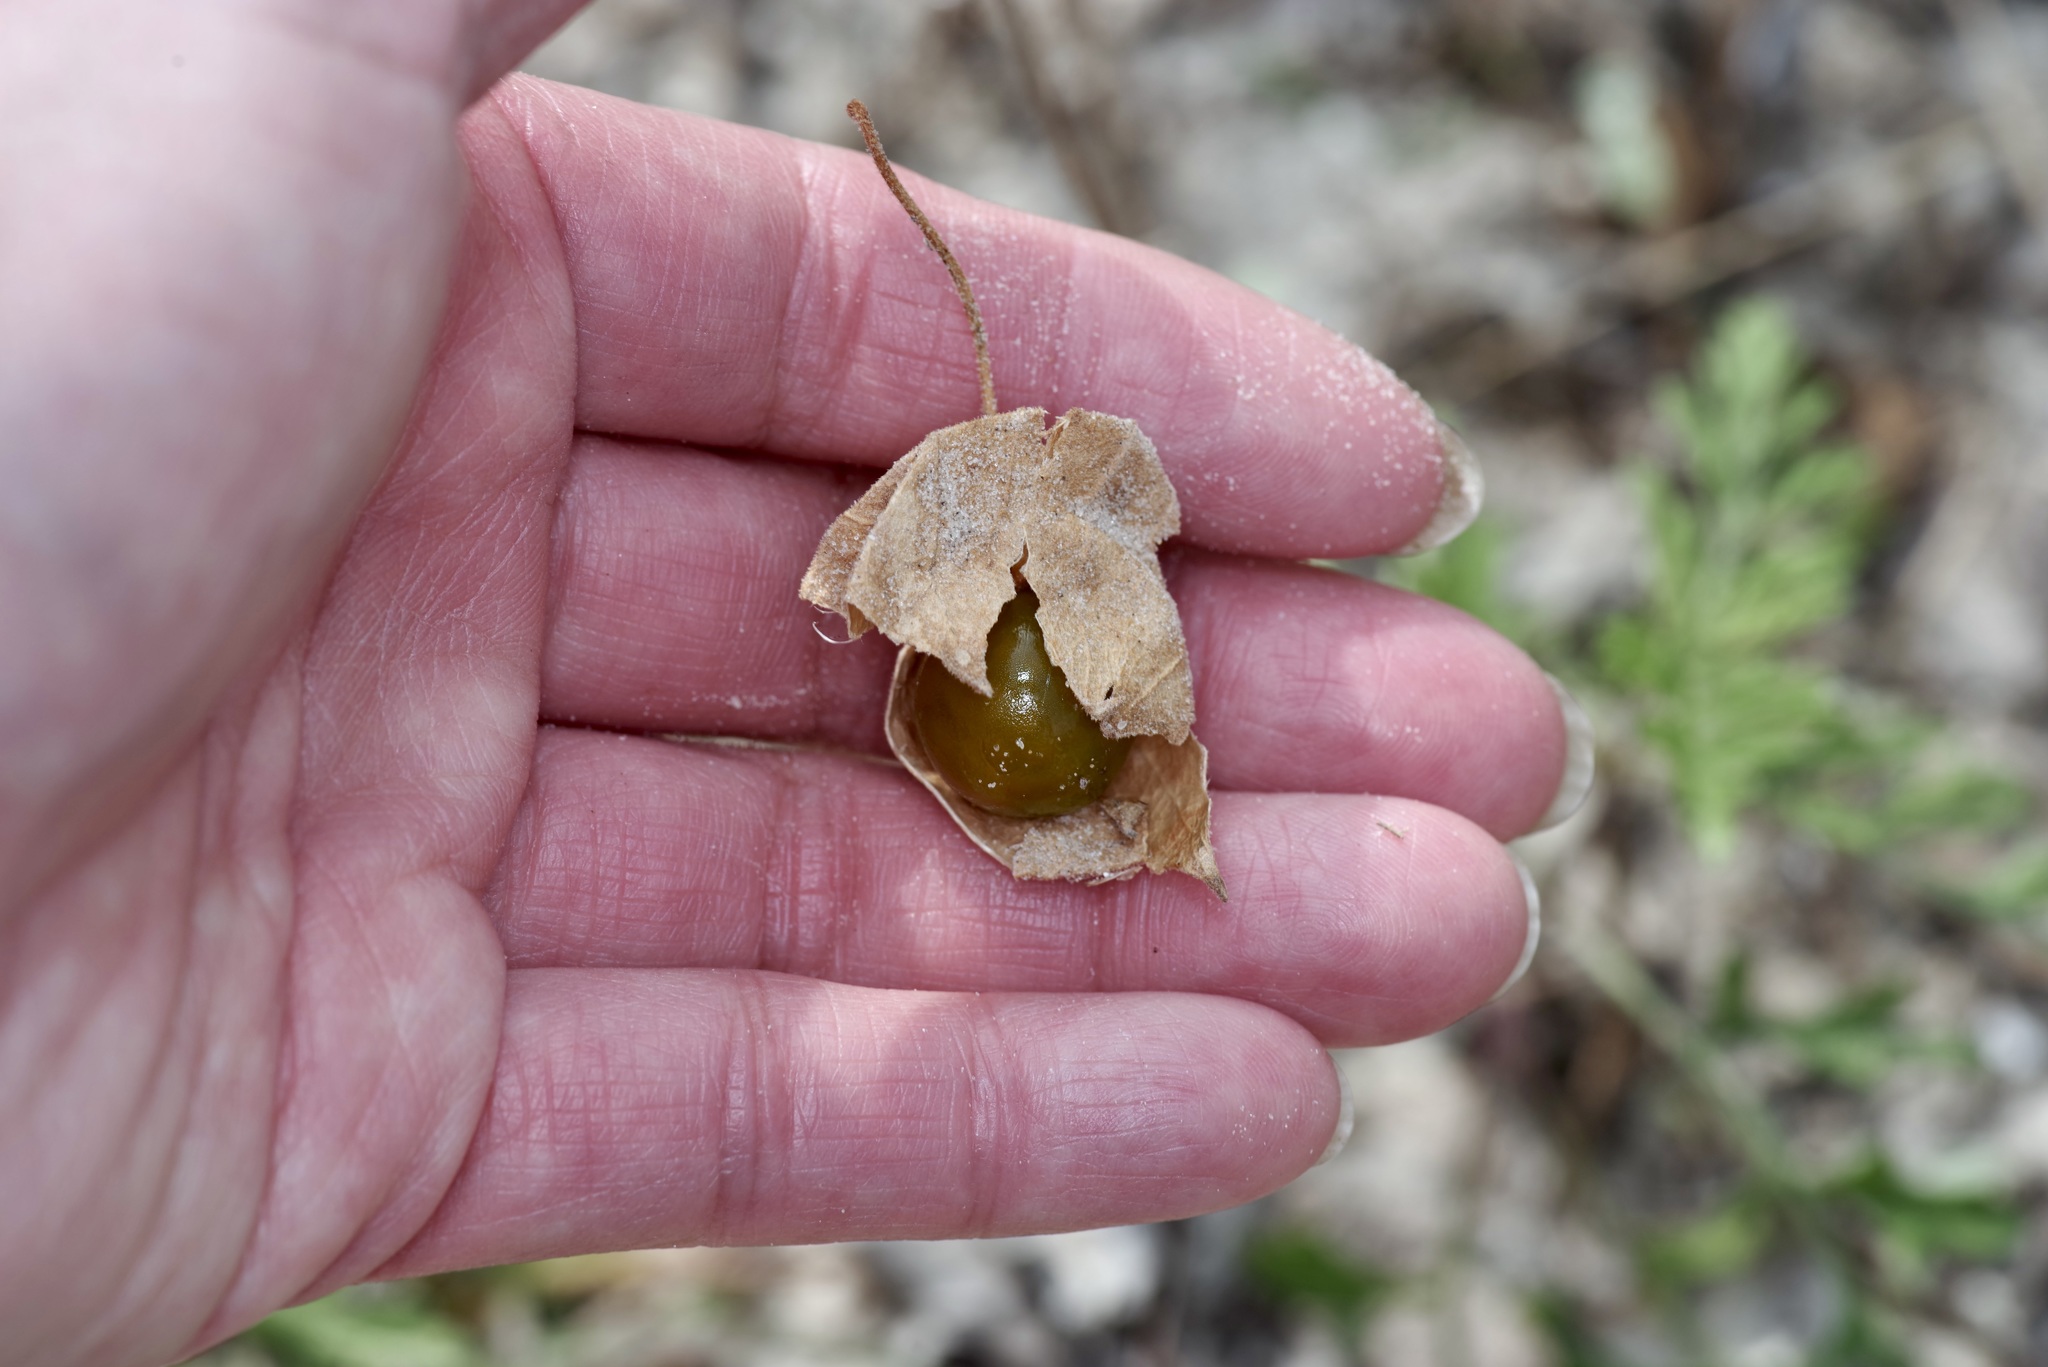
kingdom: Plantae
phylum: Tracheophyta
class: Magnoliopsida
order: Solanales
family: Solanaceae
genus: Physalis
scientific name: Physalis cinerascens
